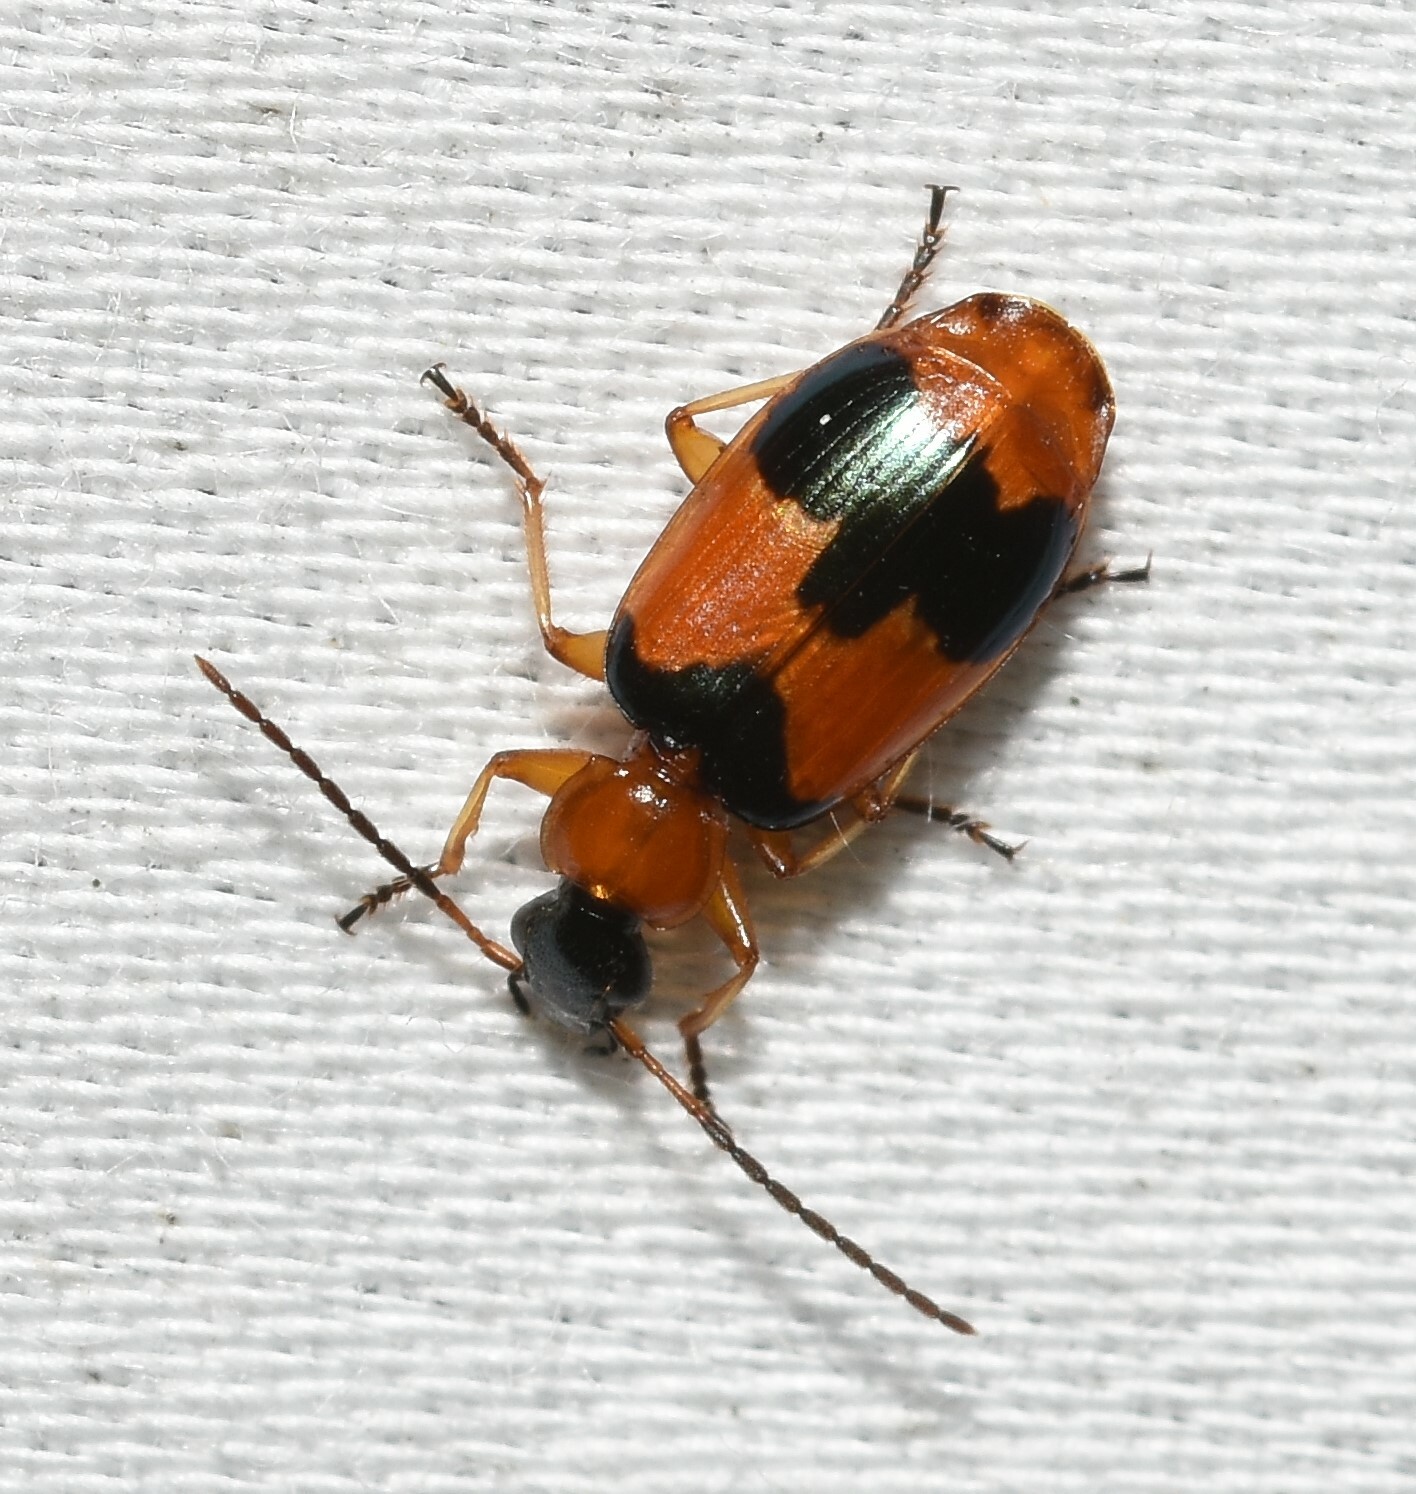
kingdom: Animalia
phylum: Arthropoda
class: Insecta
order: Coleoptera
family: Carabidae
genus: Lebia
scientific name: Lebia pulchella
